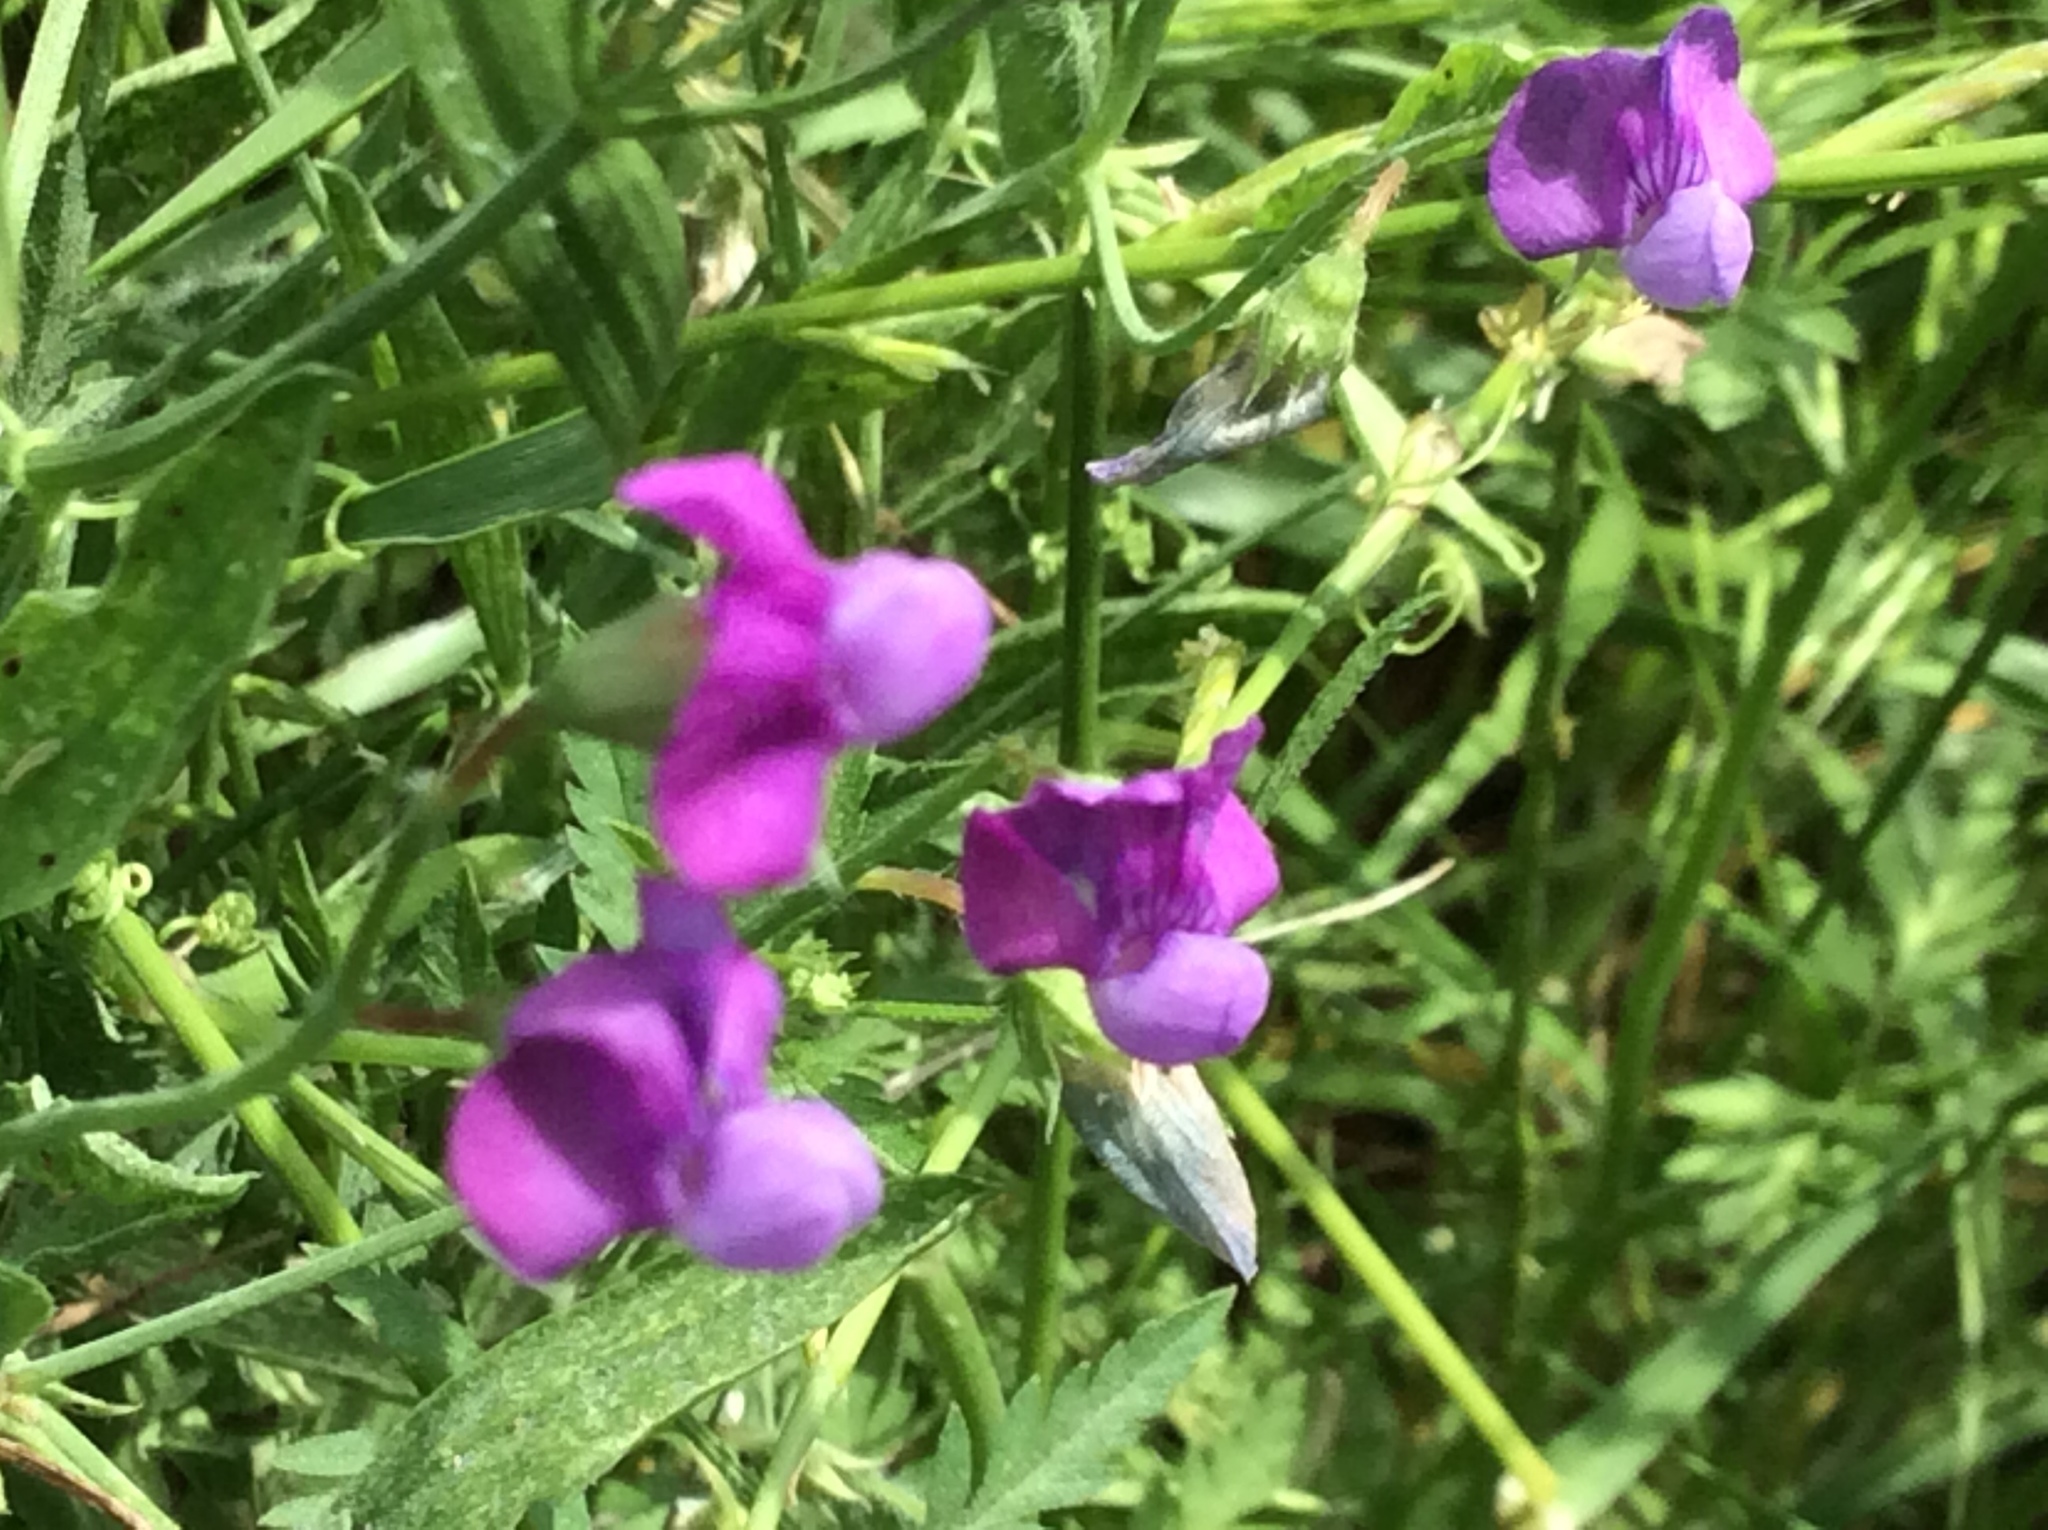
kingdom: Plantae
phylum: Tracheophyta
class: Magnoliopsida
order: Fabales
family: Fabaceae
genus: Lathyrus
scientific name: Lathyrus hirsutus
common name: Hairy vetchling
